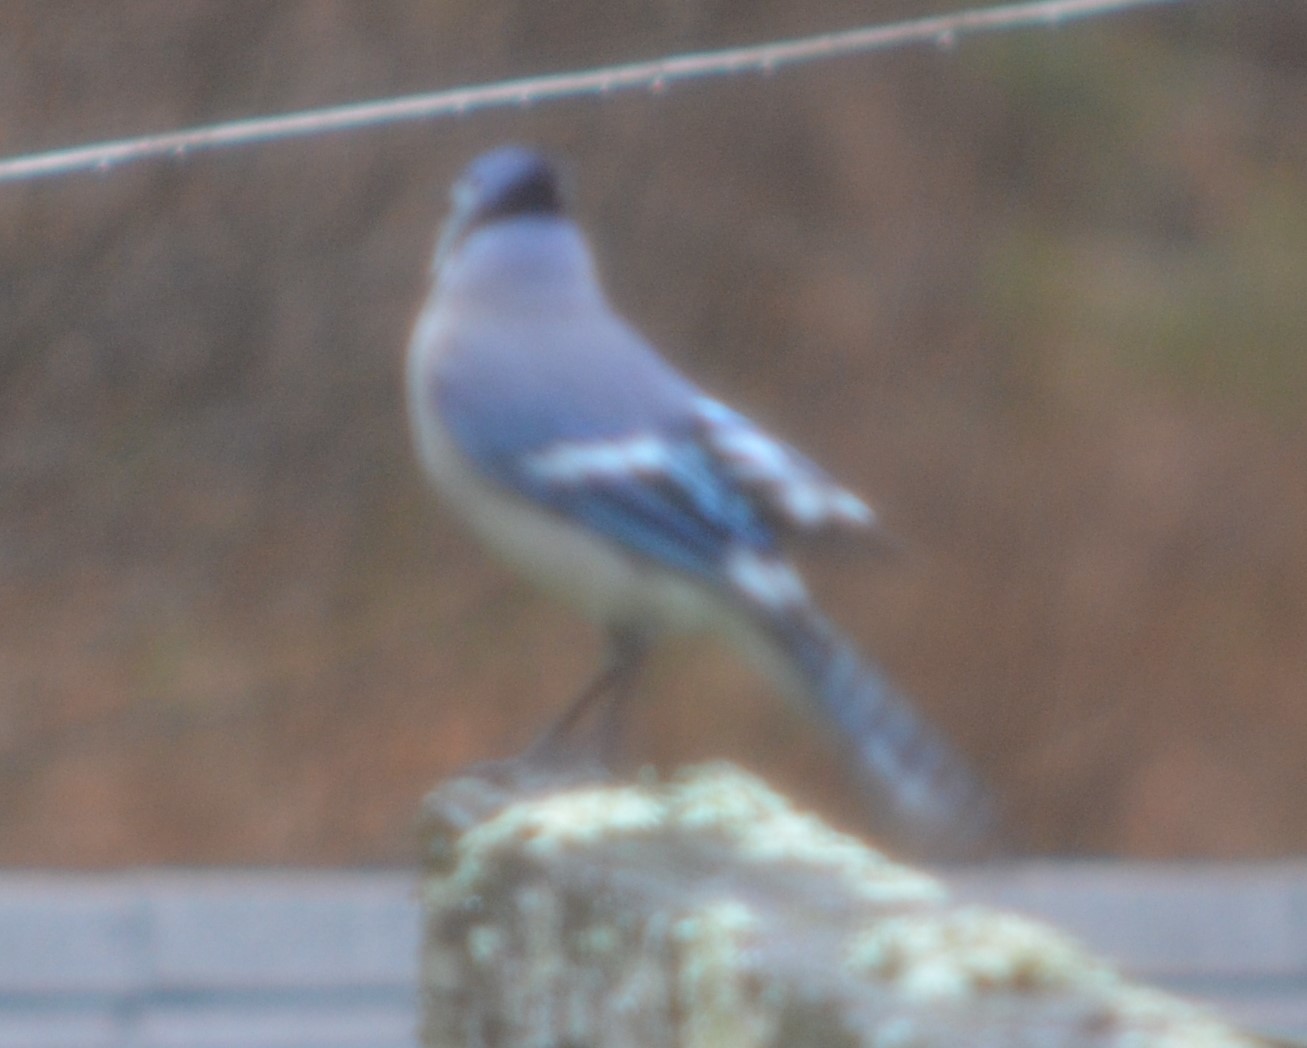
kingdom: Animalia
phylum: Chordata
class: Aves
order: Passeriformes
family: Corvidae
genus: Cyanocitta
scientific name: Cyanocitta cristata
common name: Blue jay
